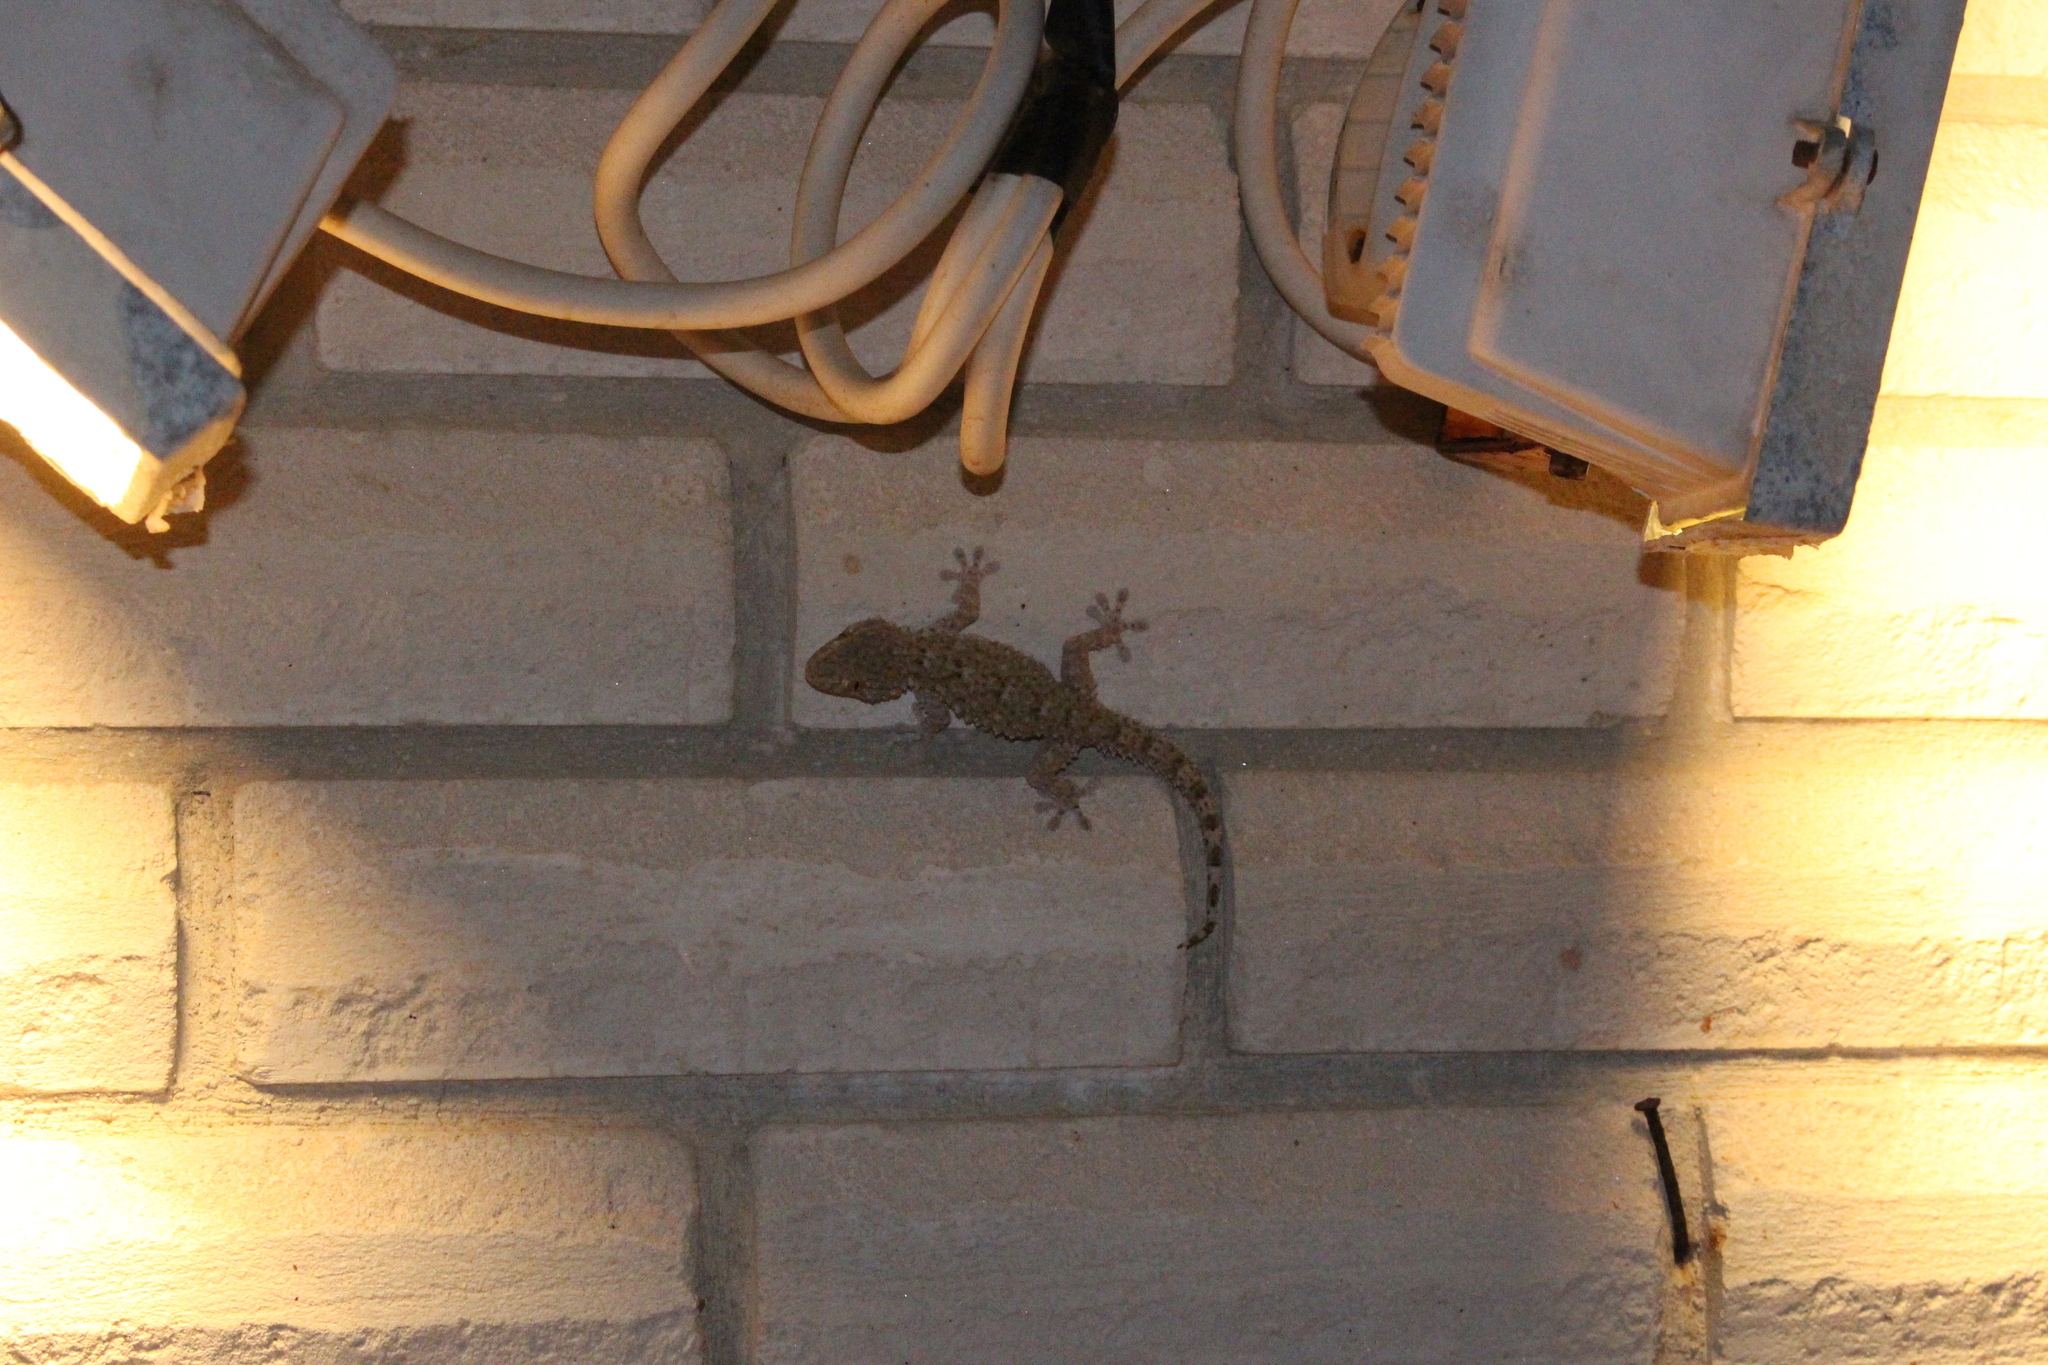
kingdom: Animalia
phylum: Chordata
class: Squamata
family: Phyllodactylidae
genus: Tarentola
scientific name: Tarentola mauritanica
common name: Moorish gecko
